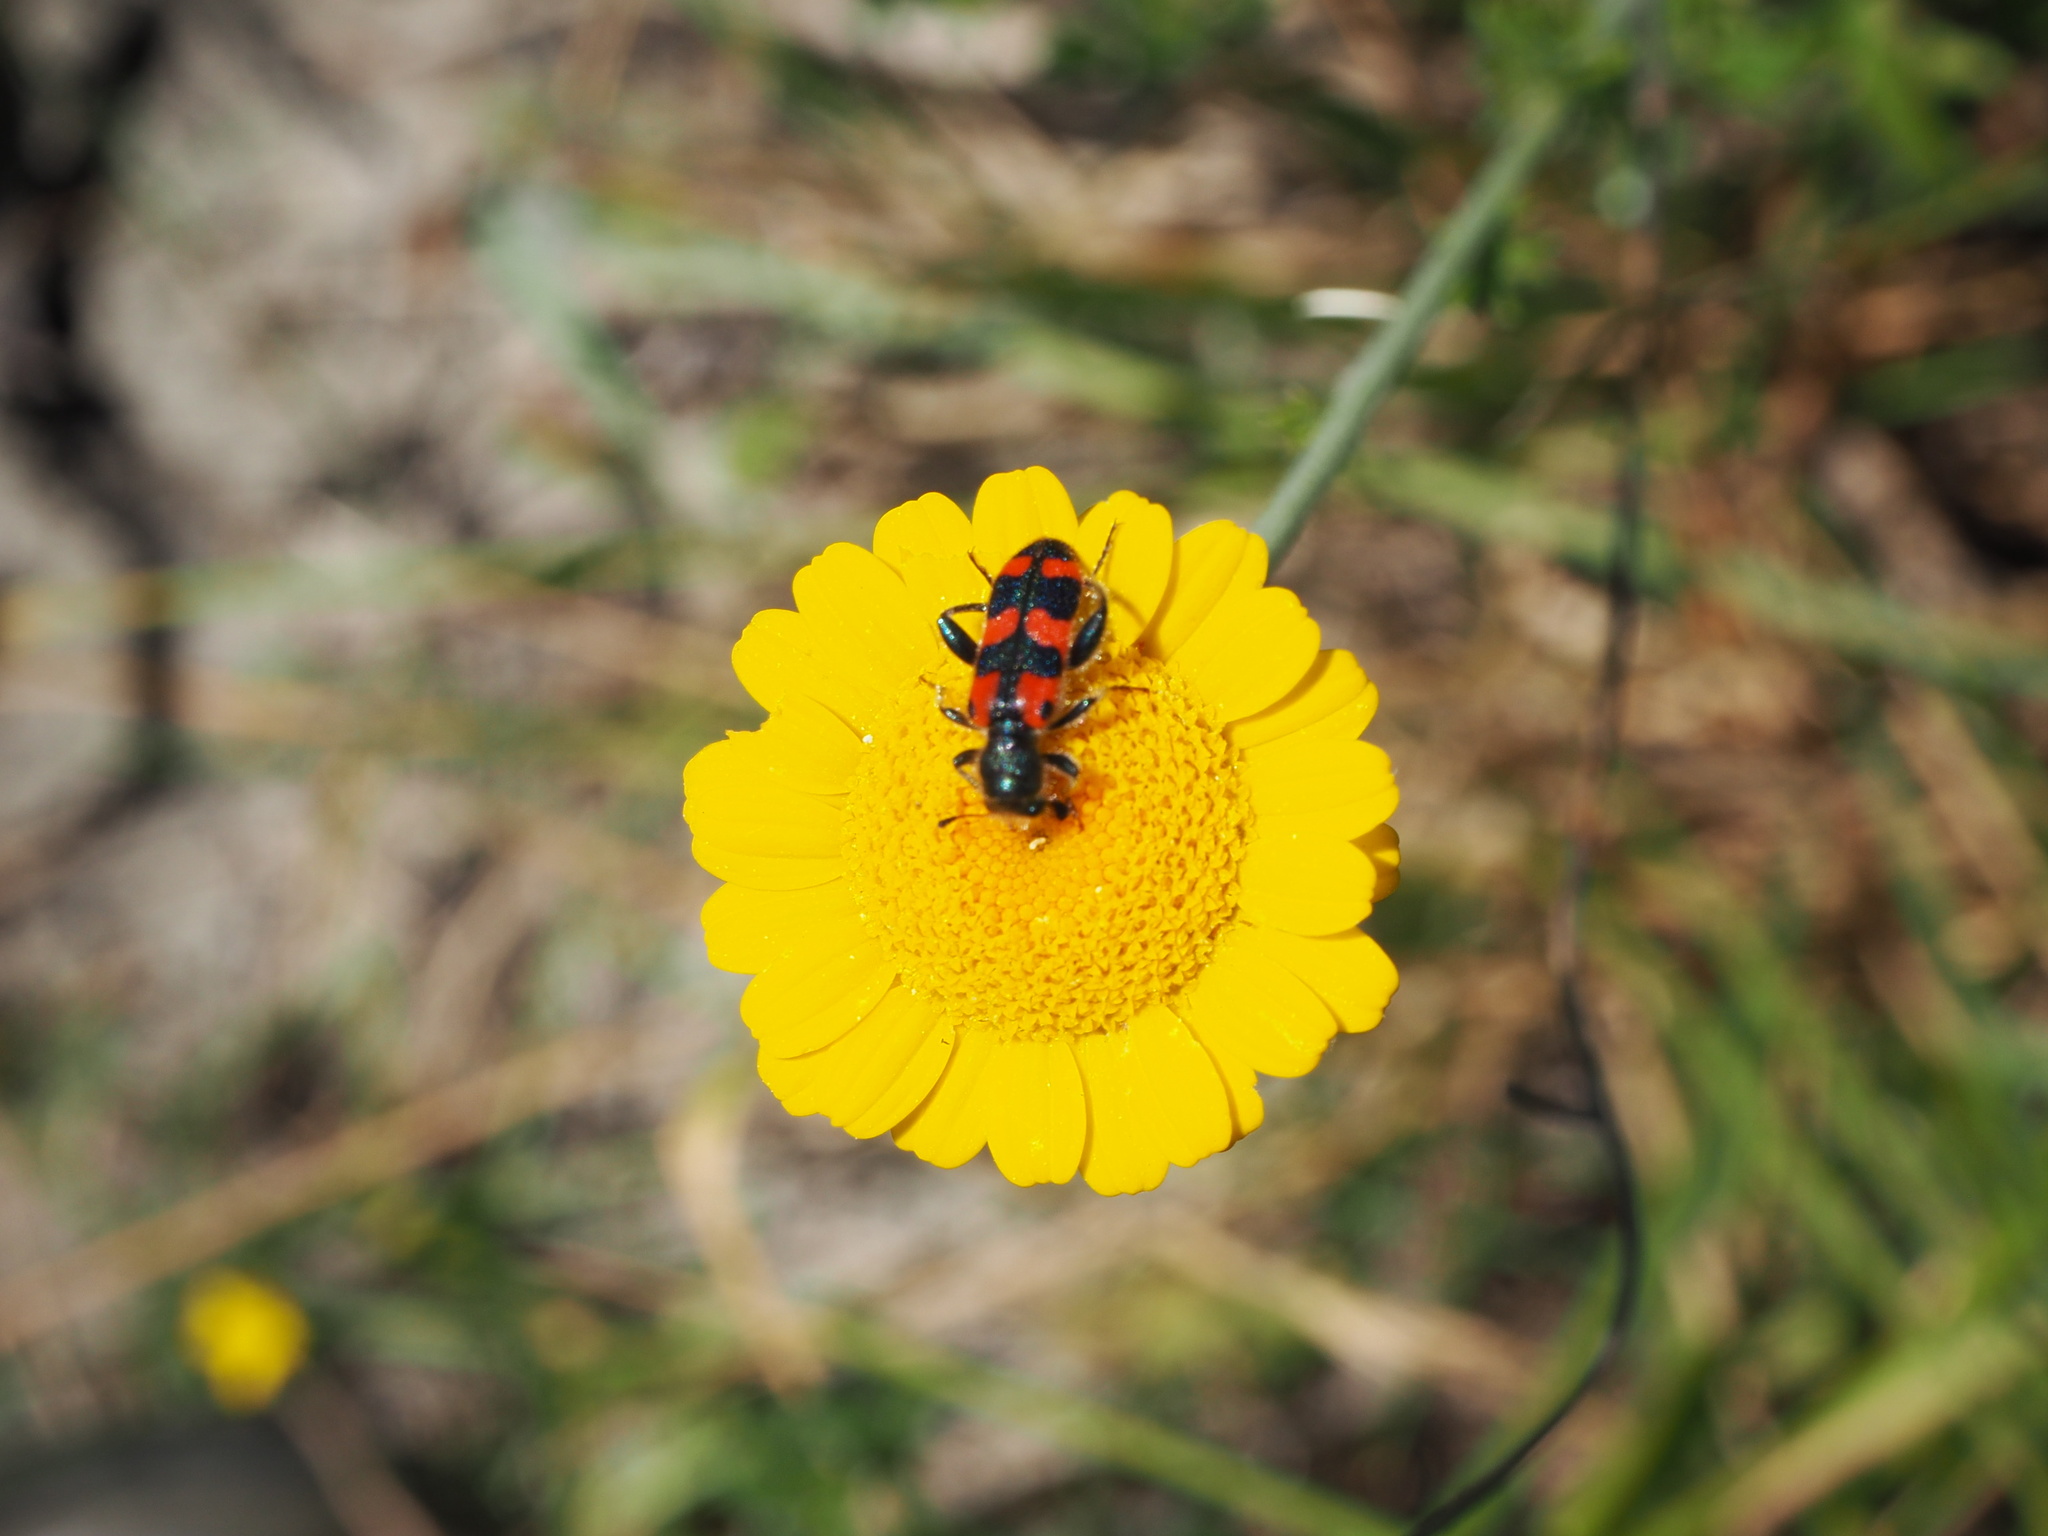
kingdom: Animalia
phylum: Arthropoda
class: Insecta
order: Coleoptera
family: Cleridae
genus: Trichodes
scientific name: Trichodes leucopsideus
